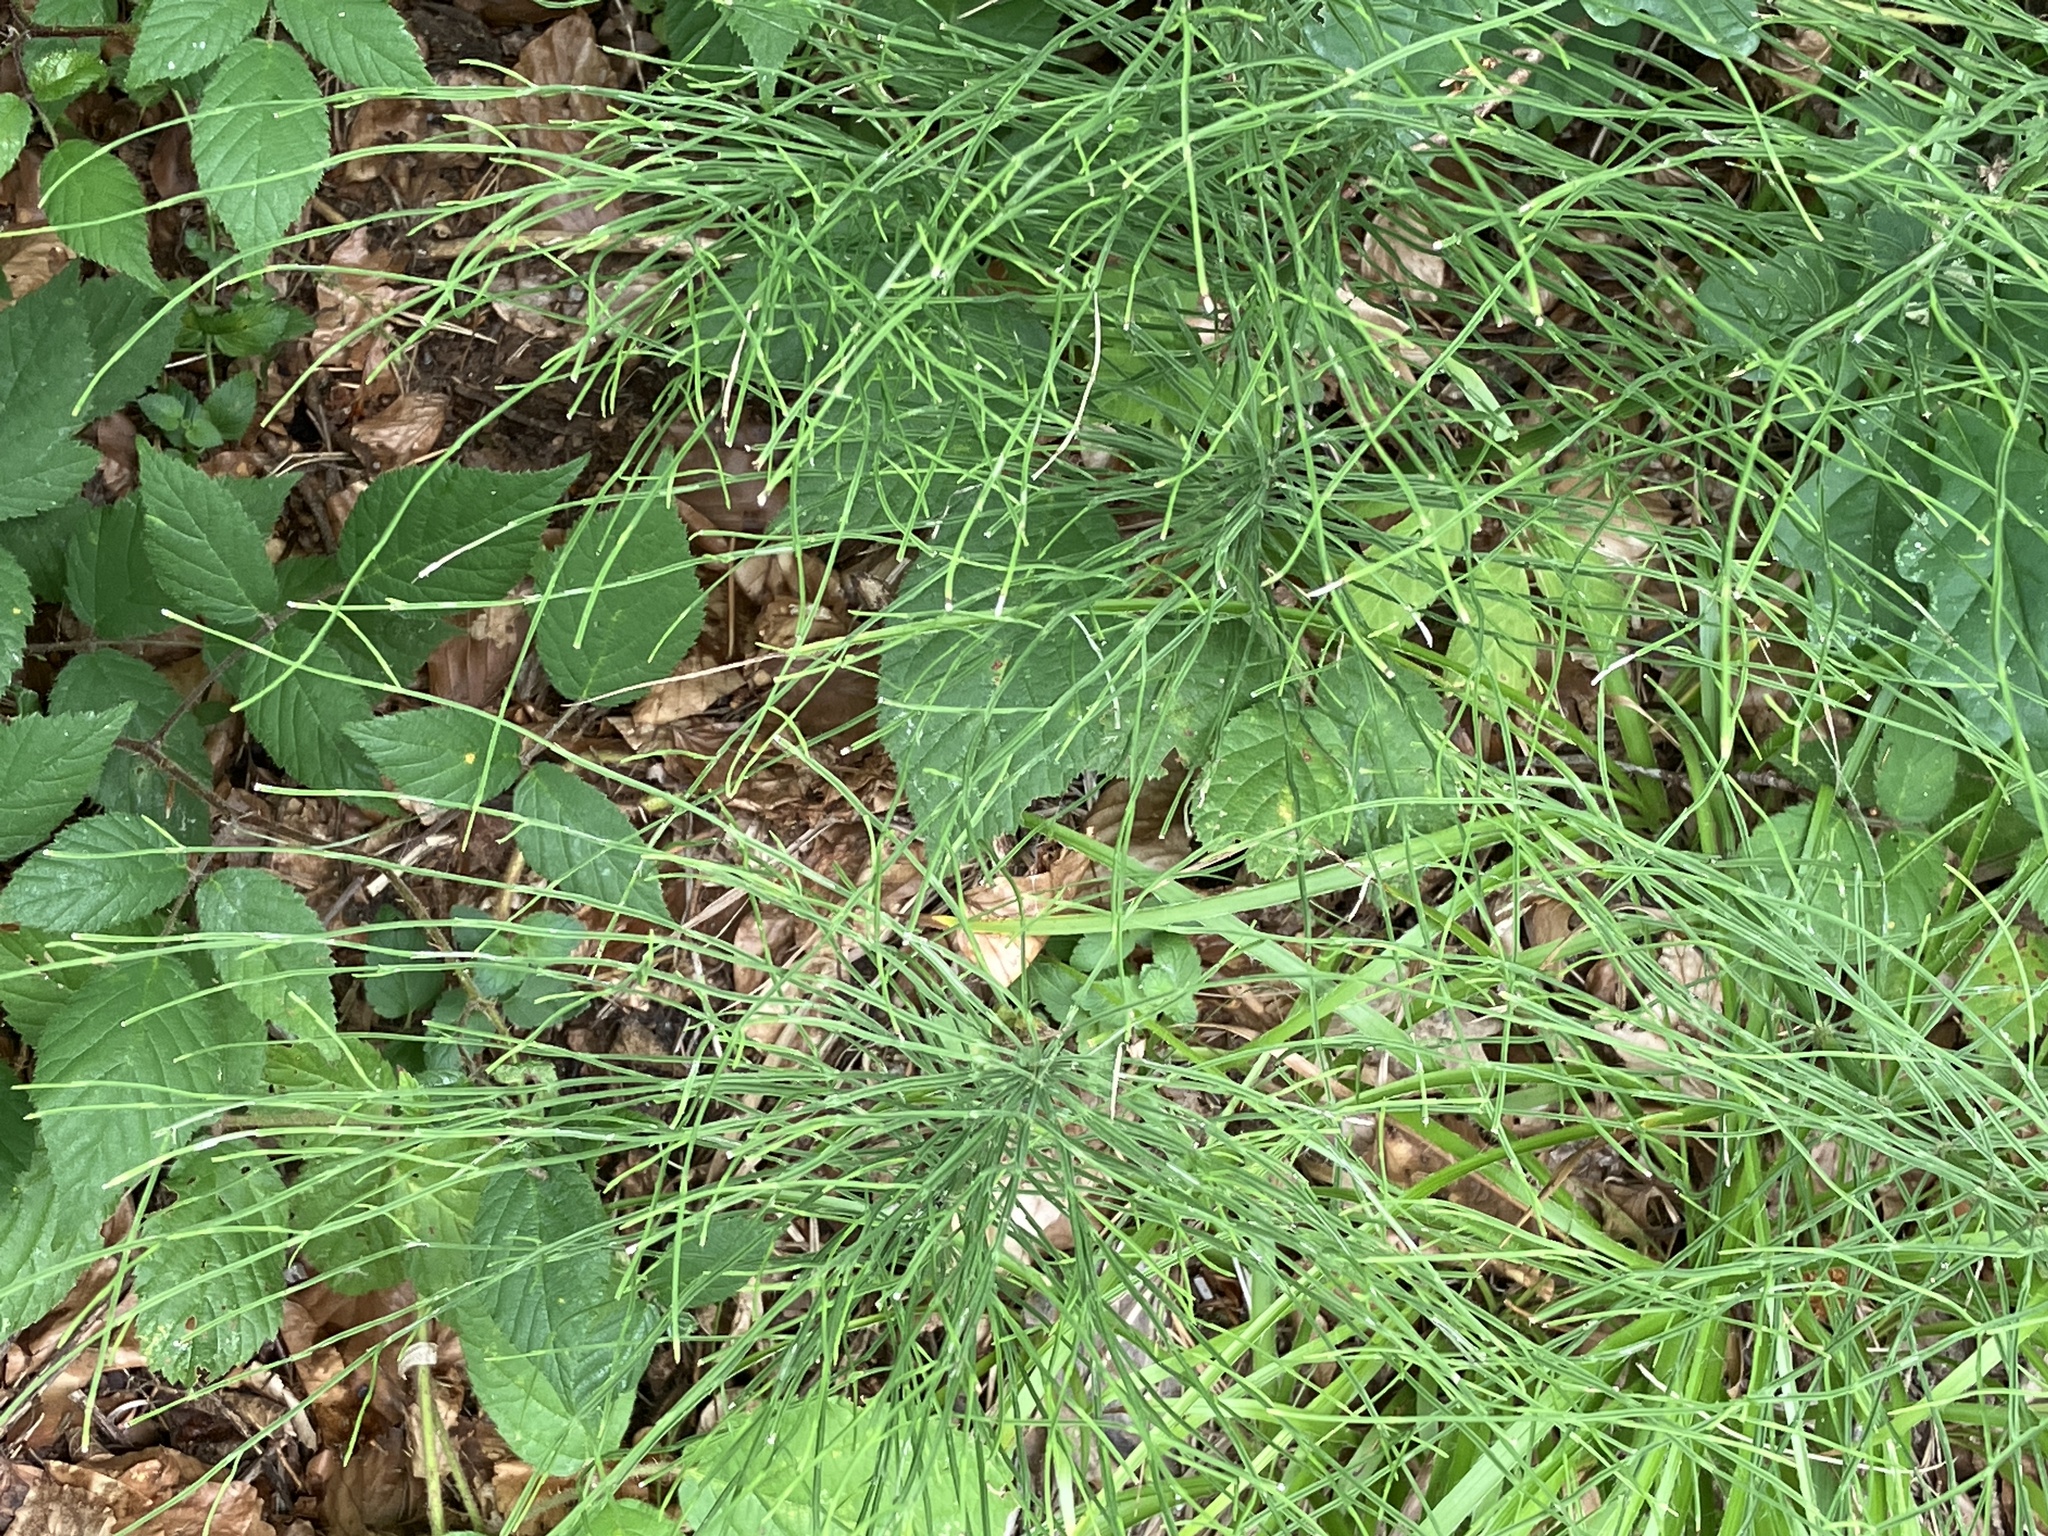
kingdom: Plantae
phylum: Tracheophyta
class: Polypodiopsida
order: Equisetales
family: Equisetaceae
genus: Equisetum
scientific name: Equisetum arvense
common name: Field horsetail
